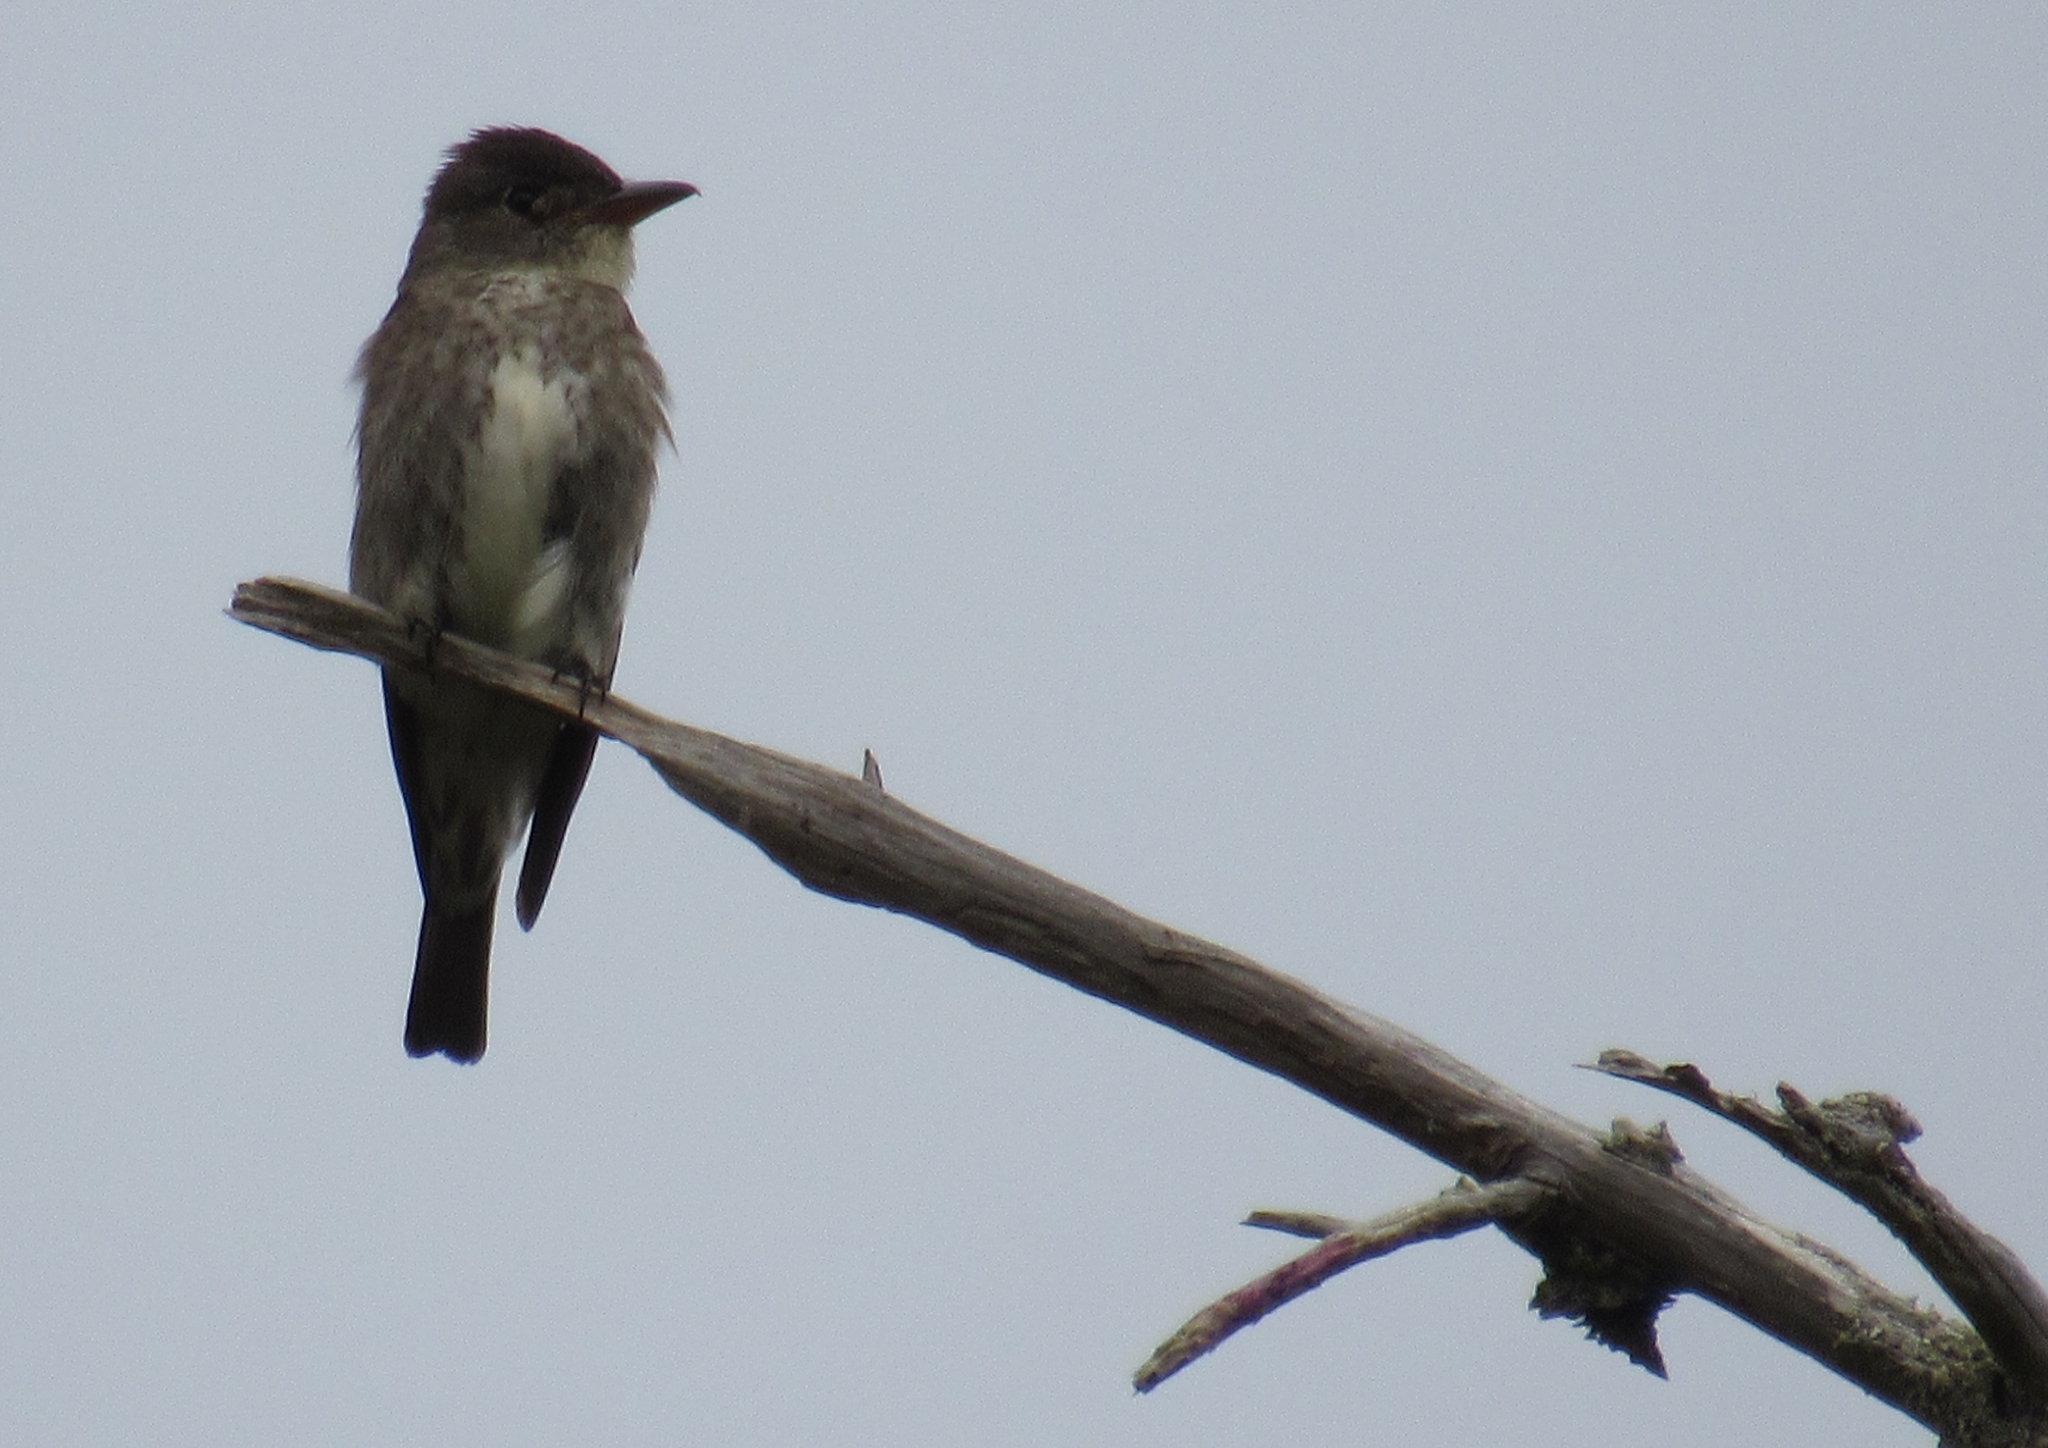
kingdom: Animalia
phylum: Chordata
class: Aves
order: Passeriformes
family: Tyrannidae
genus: Contopus
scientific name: Contopus cooperi
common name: Olive-sided flycatcher
